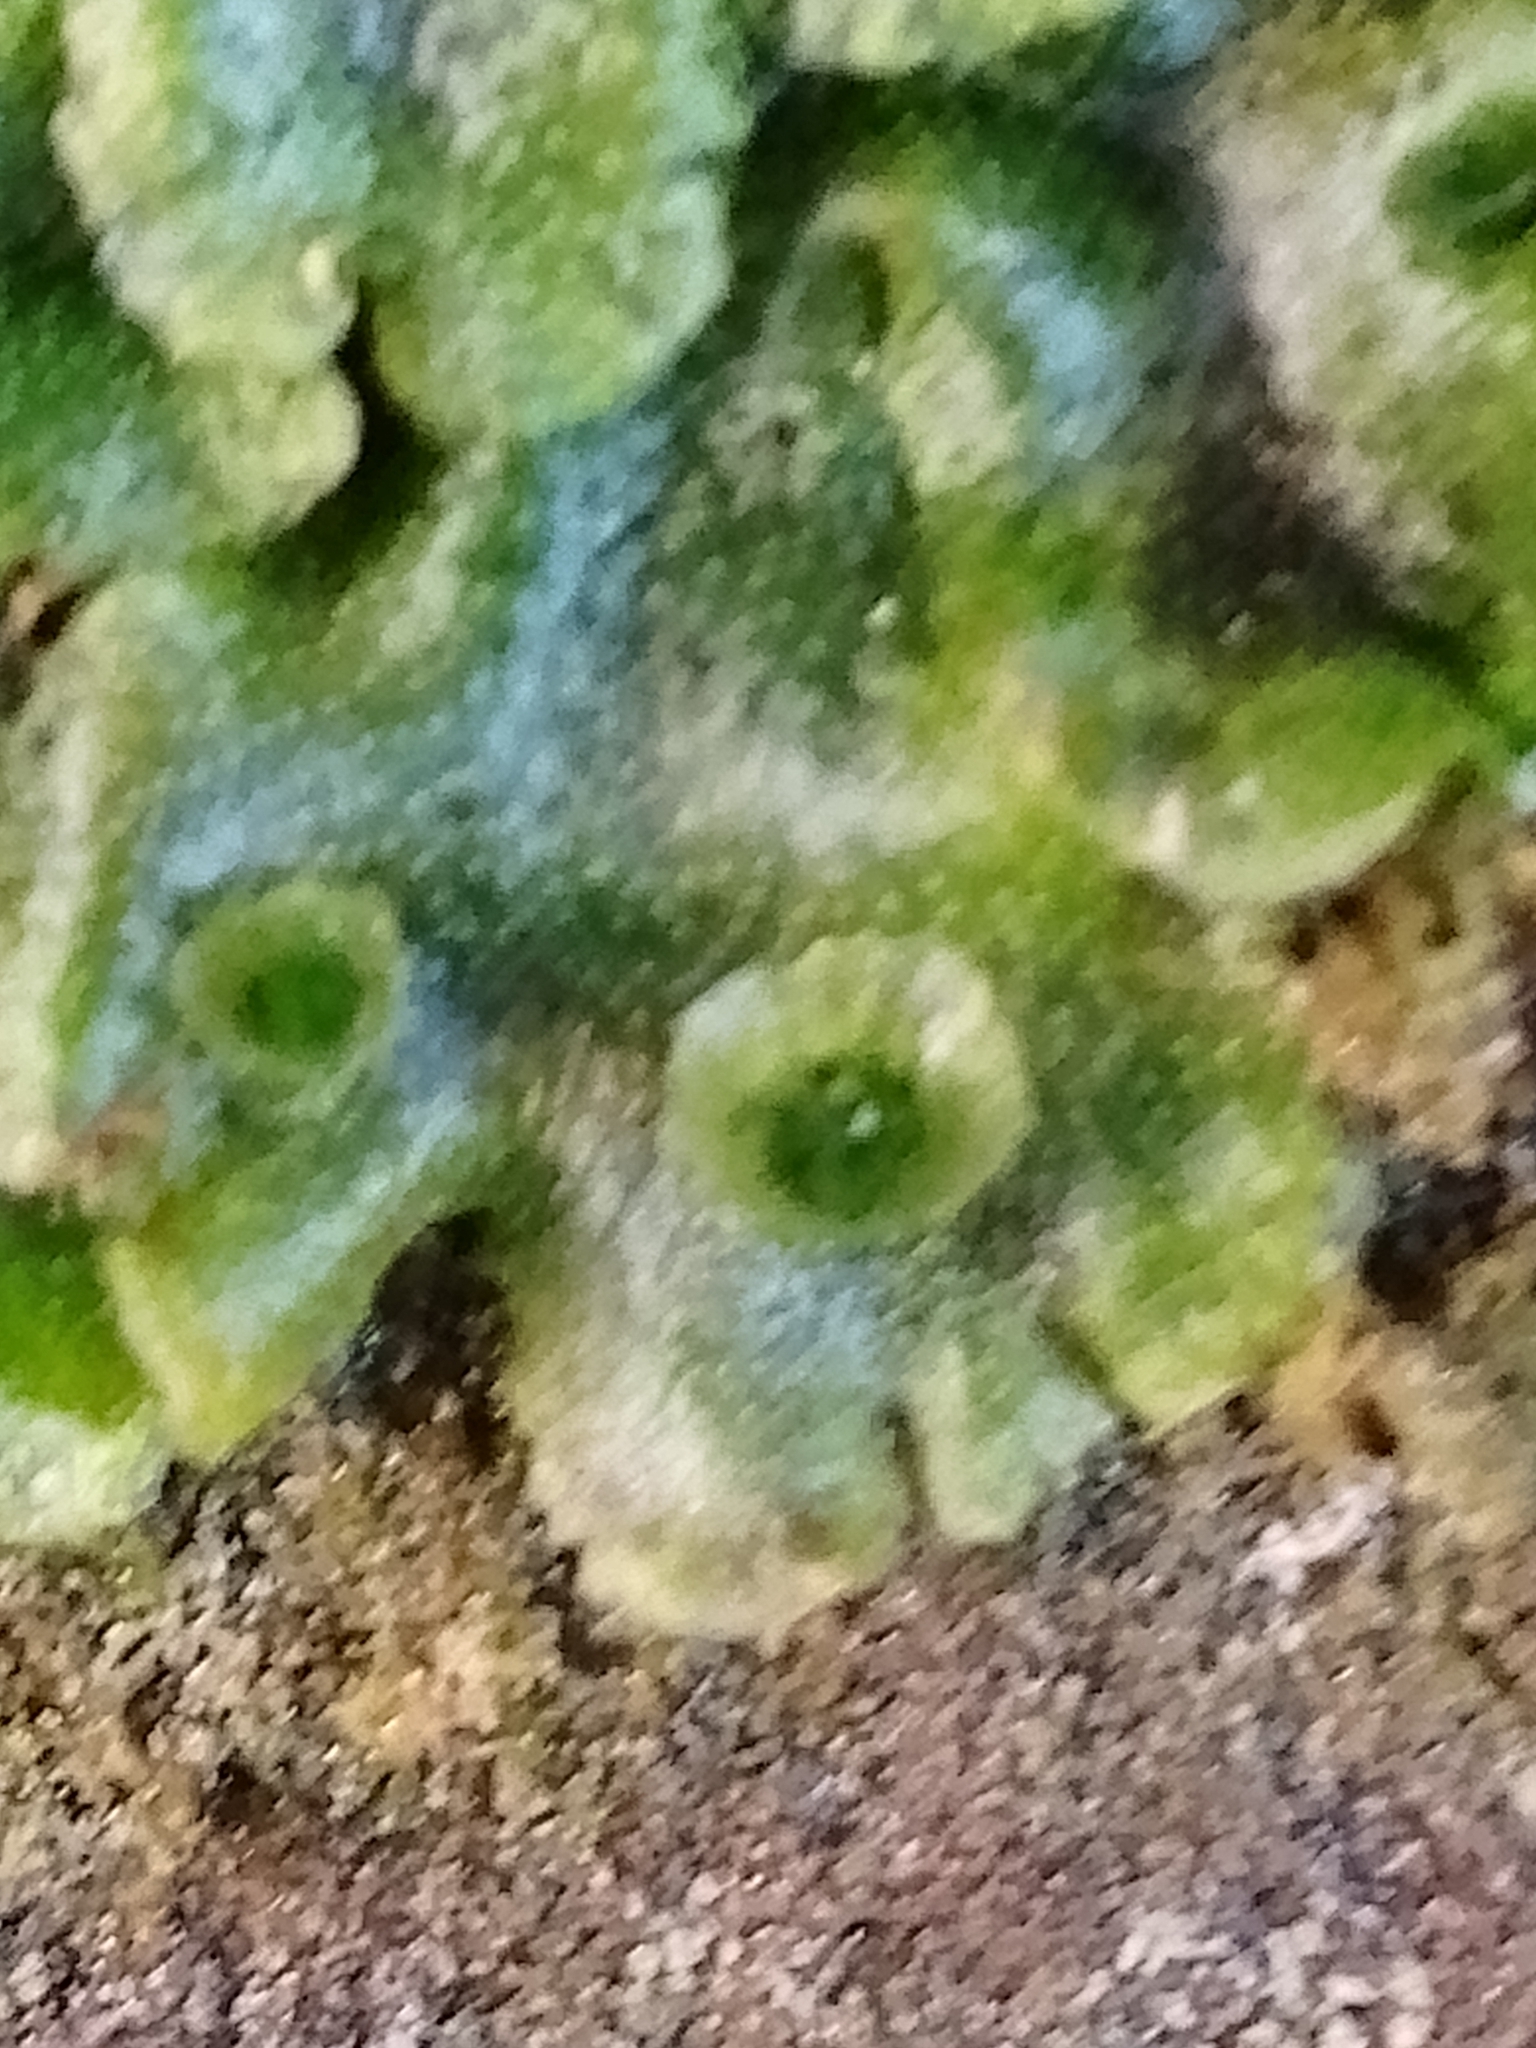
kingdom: Plantae
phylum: Marchantiophyta
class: Marchantiopsida
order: Marchantiales
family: Marchantiaceae
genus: Marchantia
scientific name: Marchantia polymorpha
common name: Common liverwort
